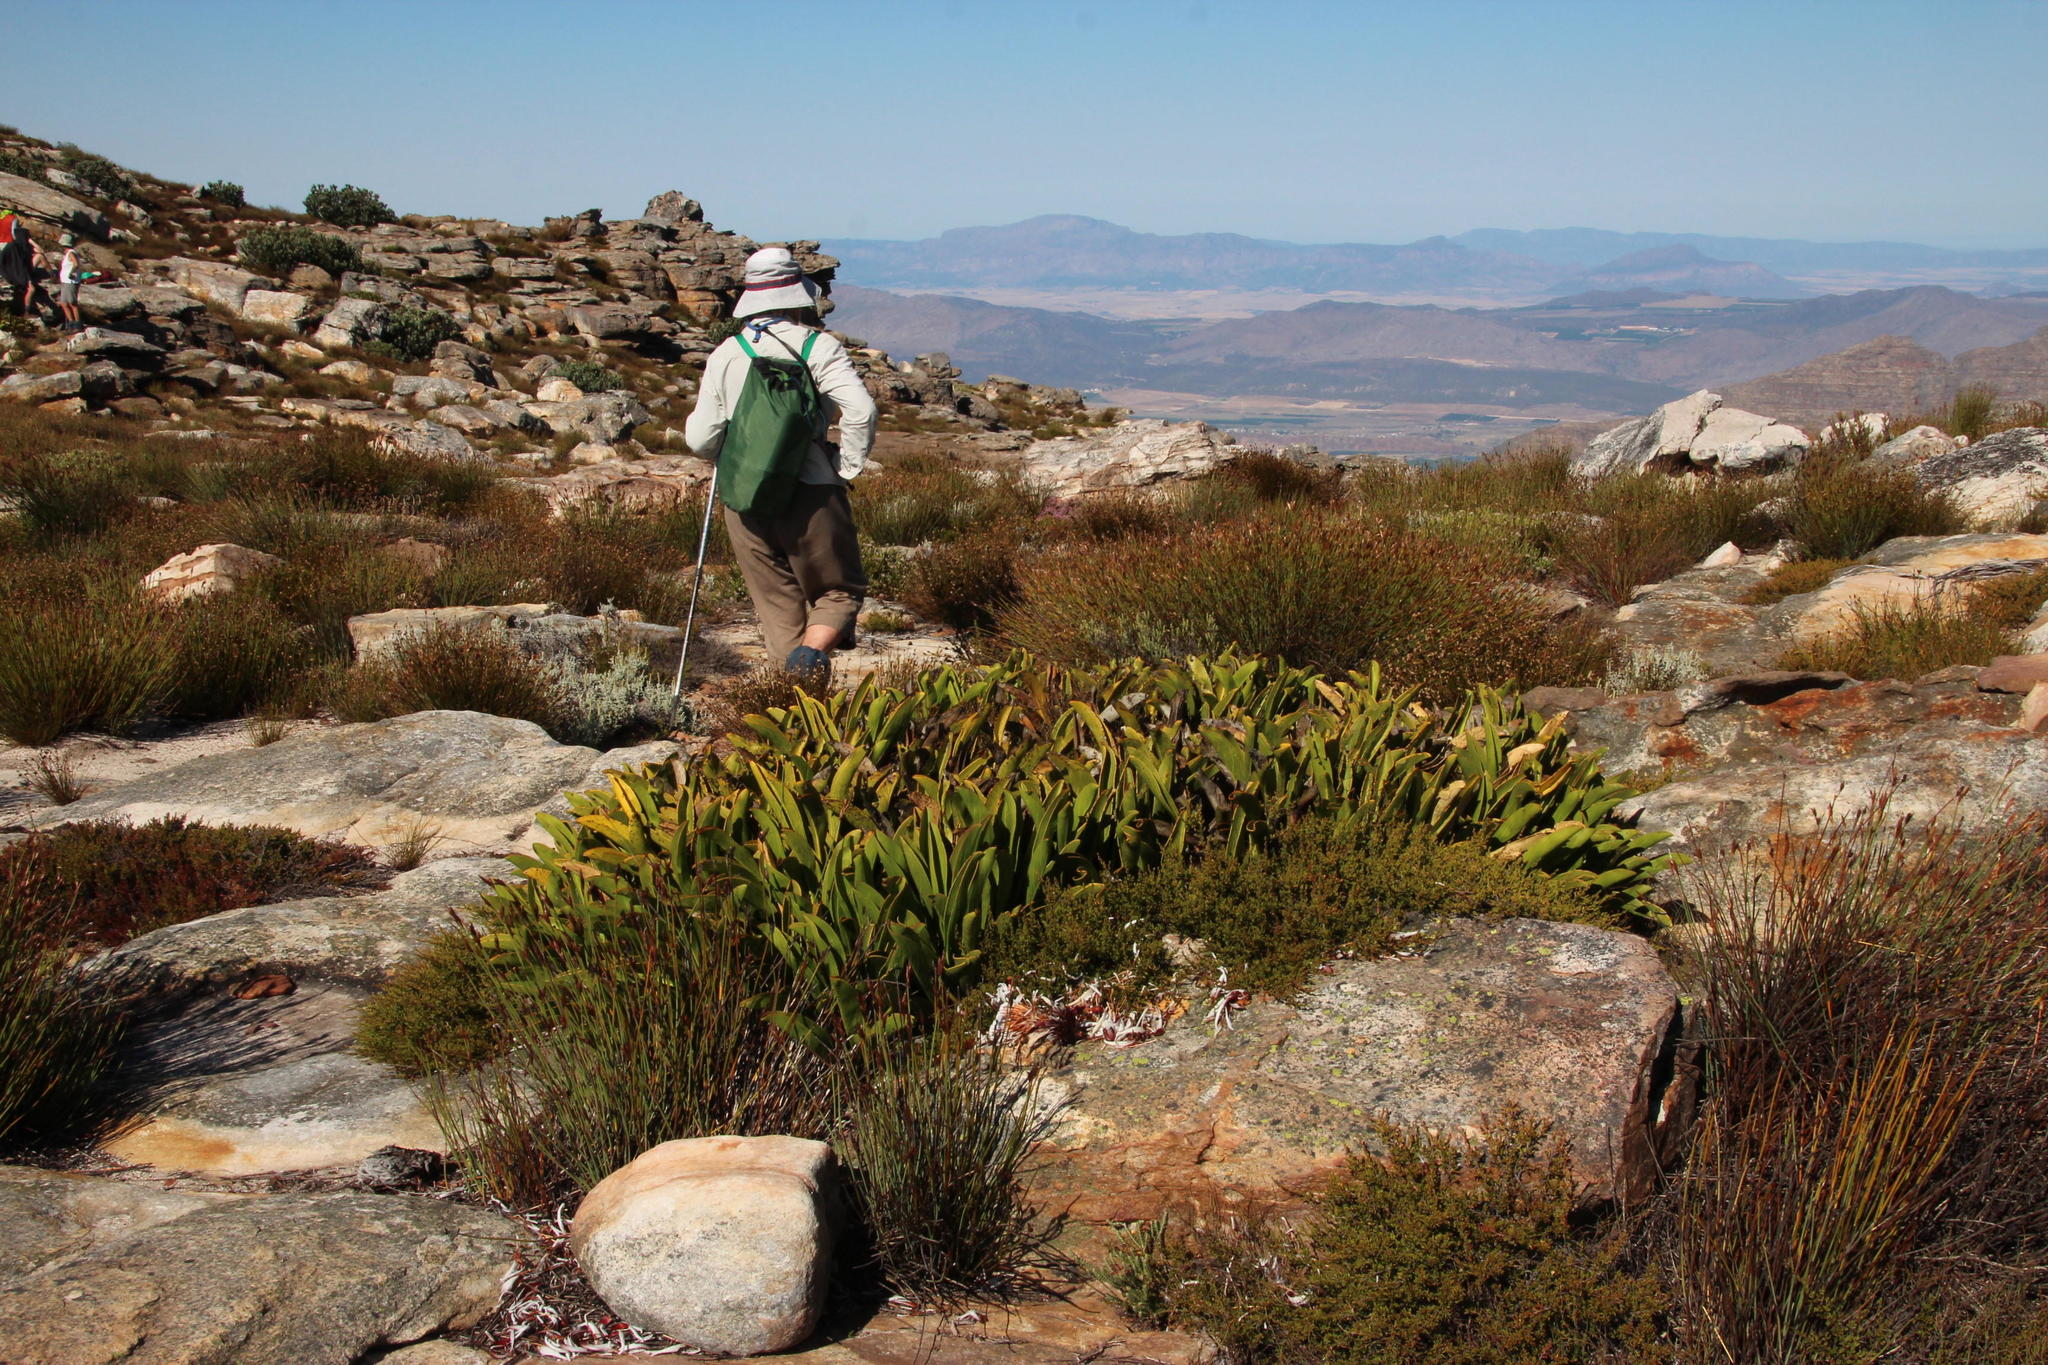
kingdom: Plantae
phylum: Tracheophyta
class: Magnoliopsida
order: Proteales
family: Proteaceae
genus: Protea
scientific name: Protea cryophila
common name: Snow protea
